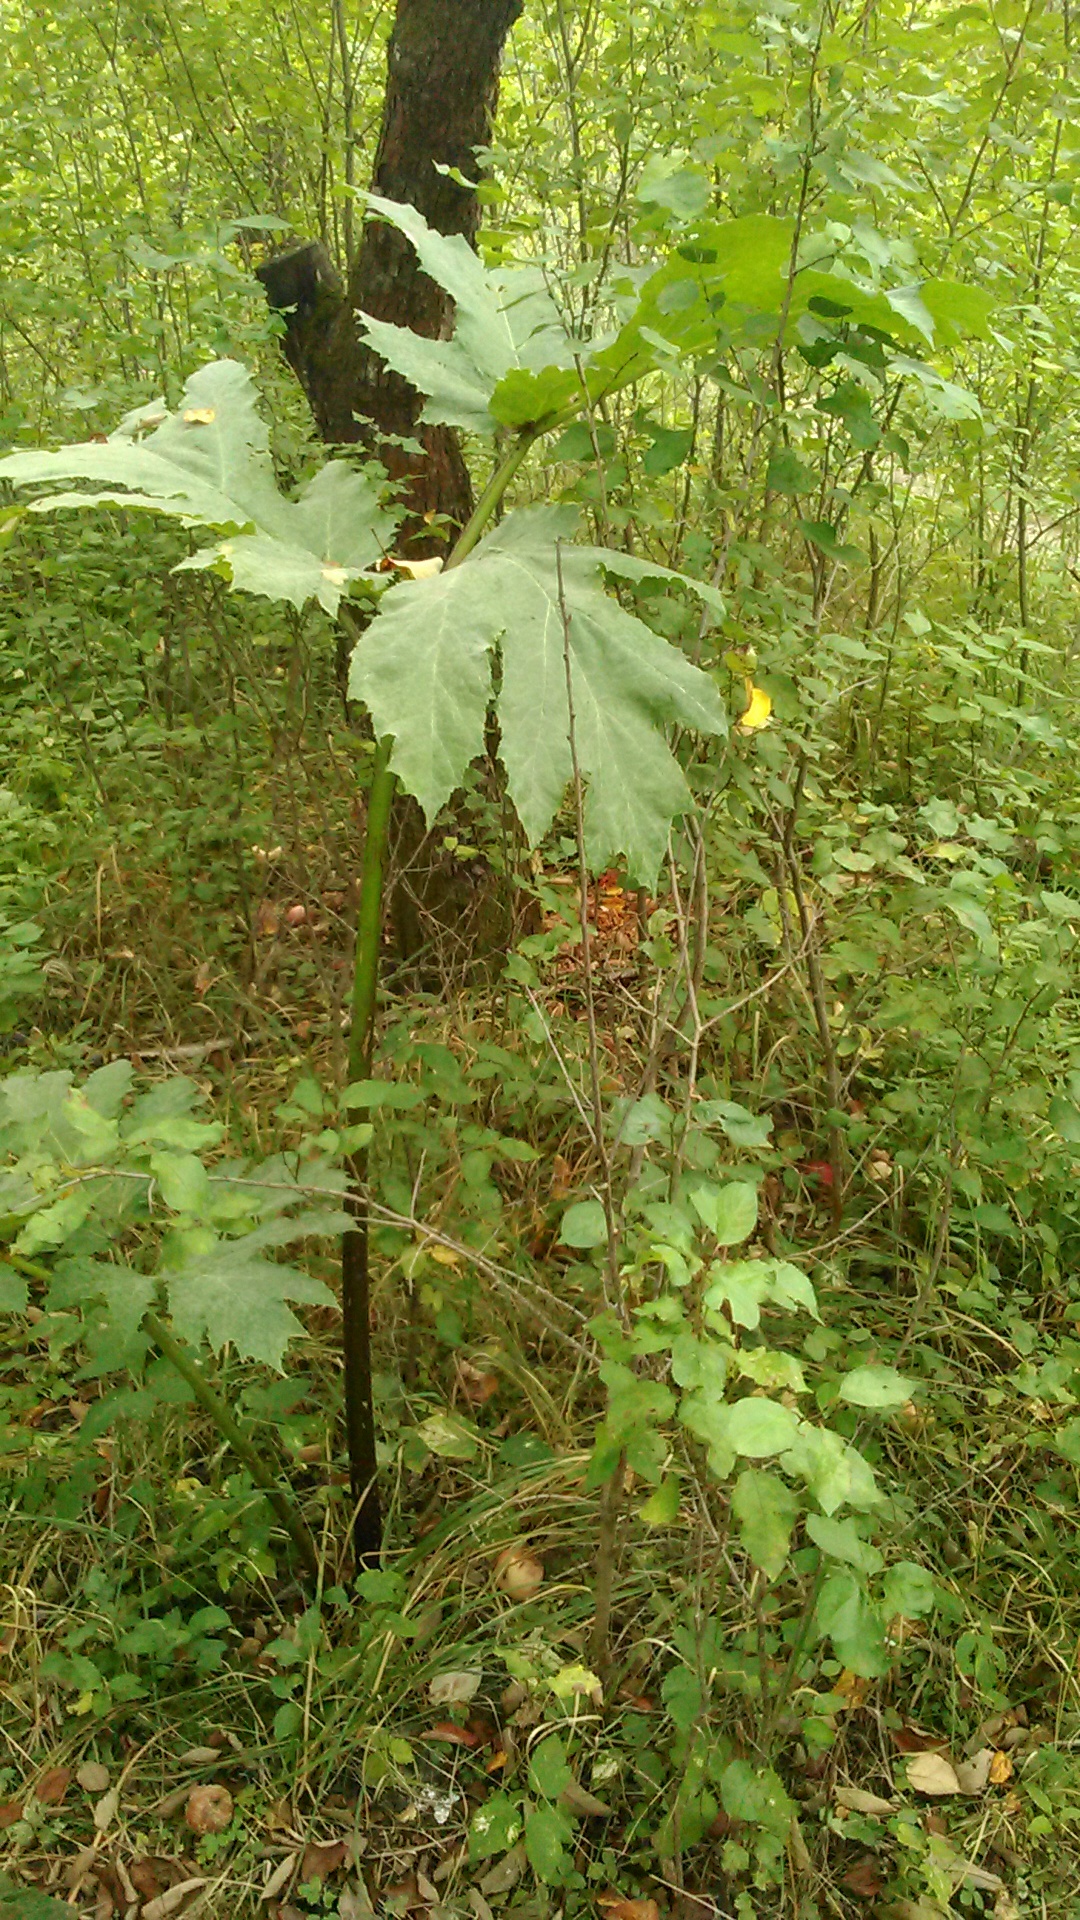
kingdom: Plantae
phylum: Tracheophyta
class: Magnoliopsida
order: Apiales
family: Apiaceae
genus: Heracleum
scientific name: Heracleum sosnowskyi
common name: Sosnowsky's hogweed
